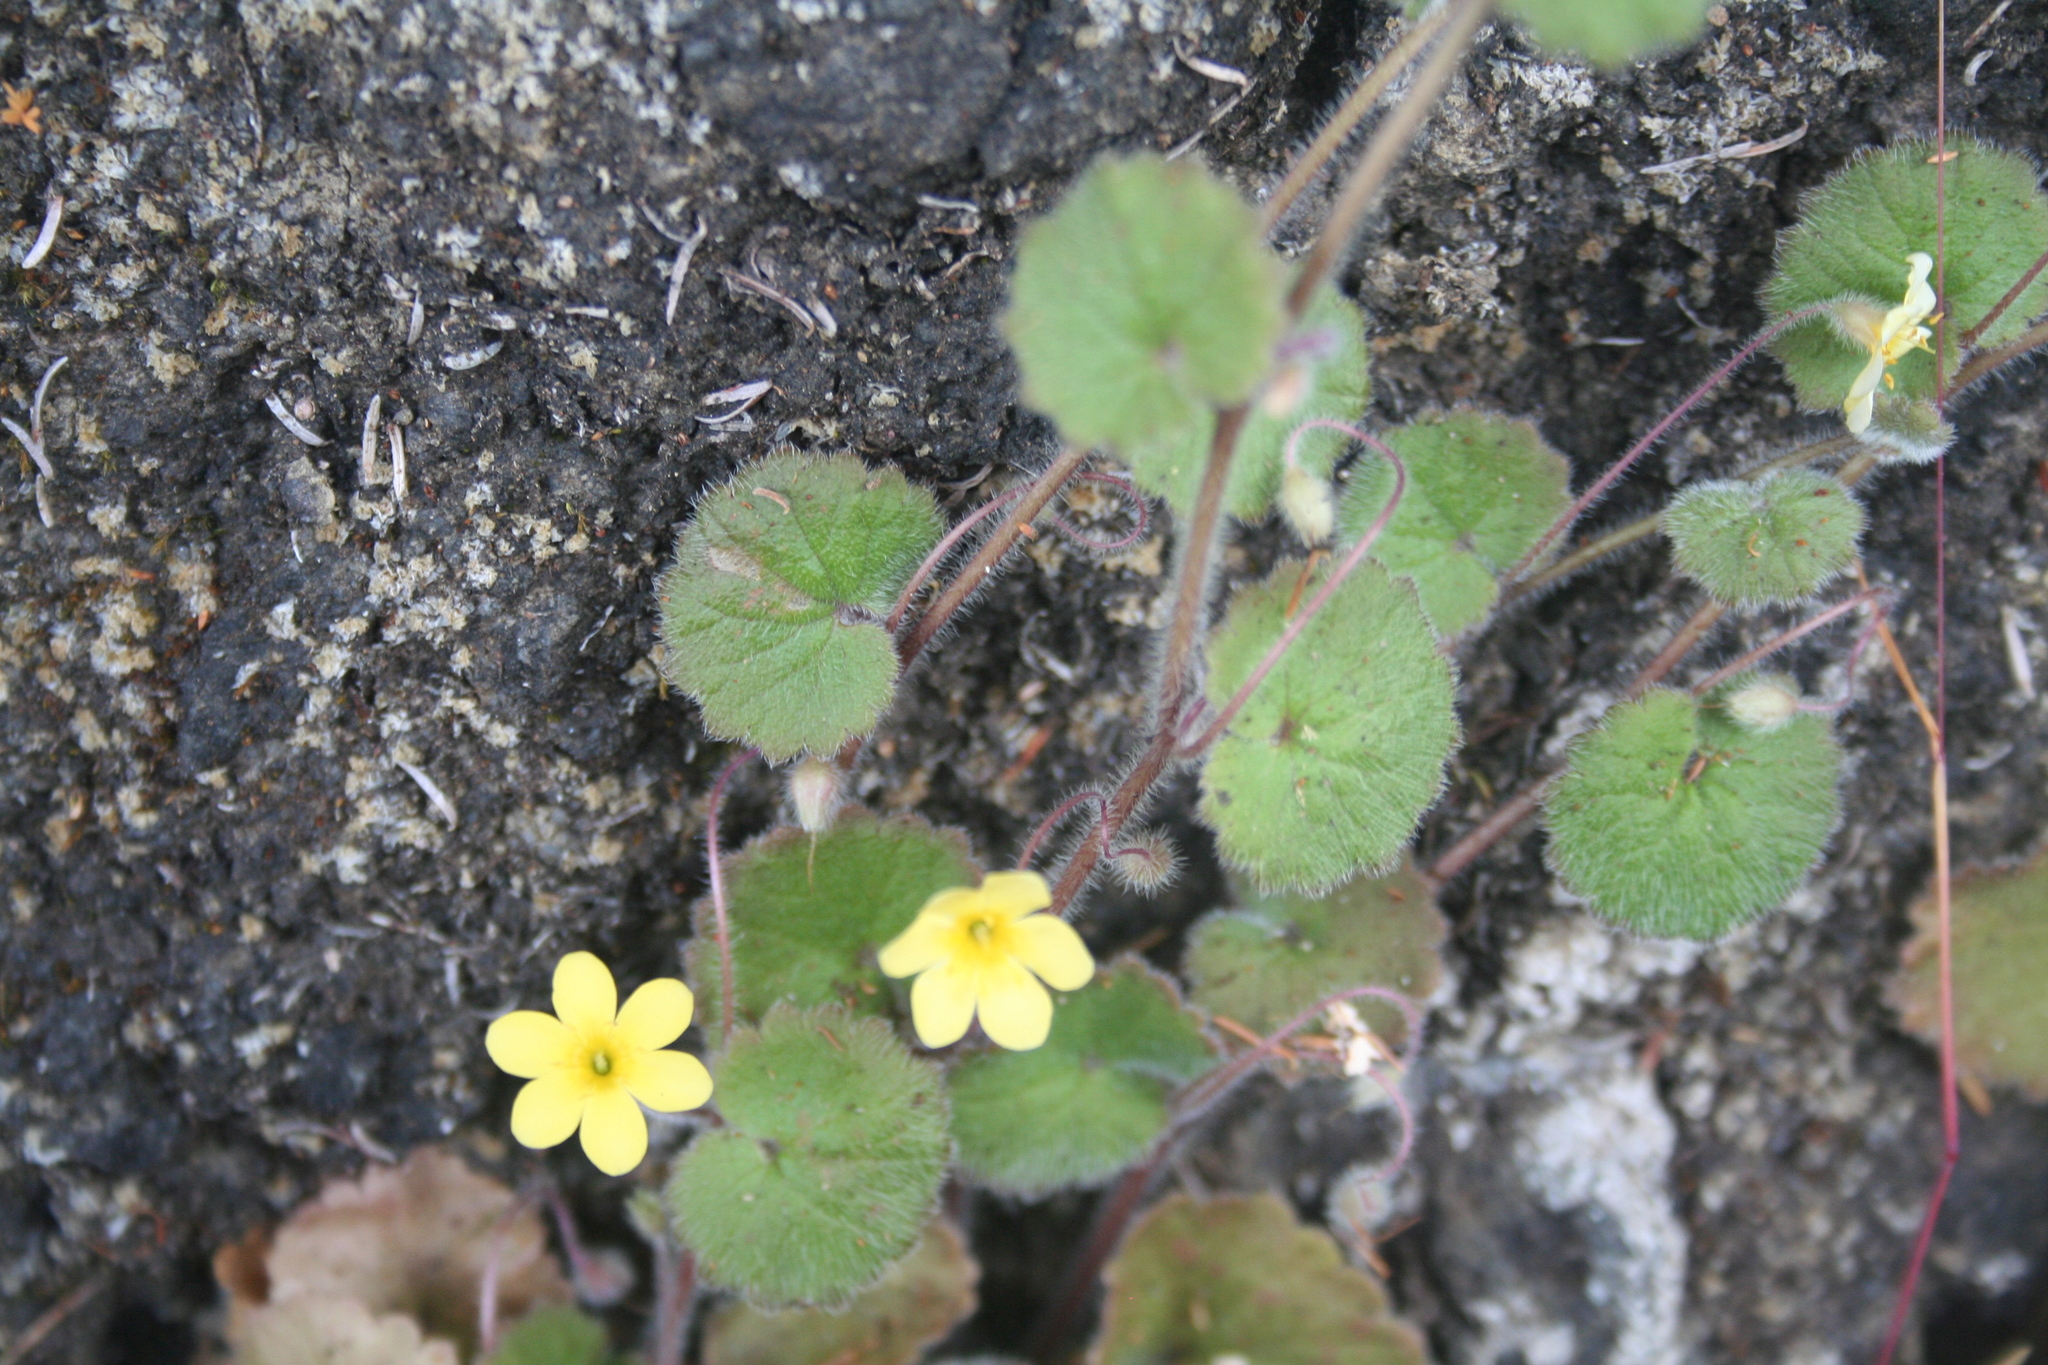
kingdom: Plantae
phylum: Tracheophyta
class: Magnoliopsida
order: Lamiales
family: Plantaginaceae
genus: Sibthorpia
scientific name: Sibthorpia peregrina
